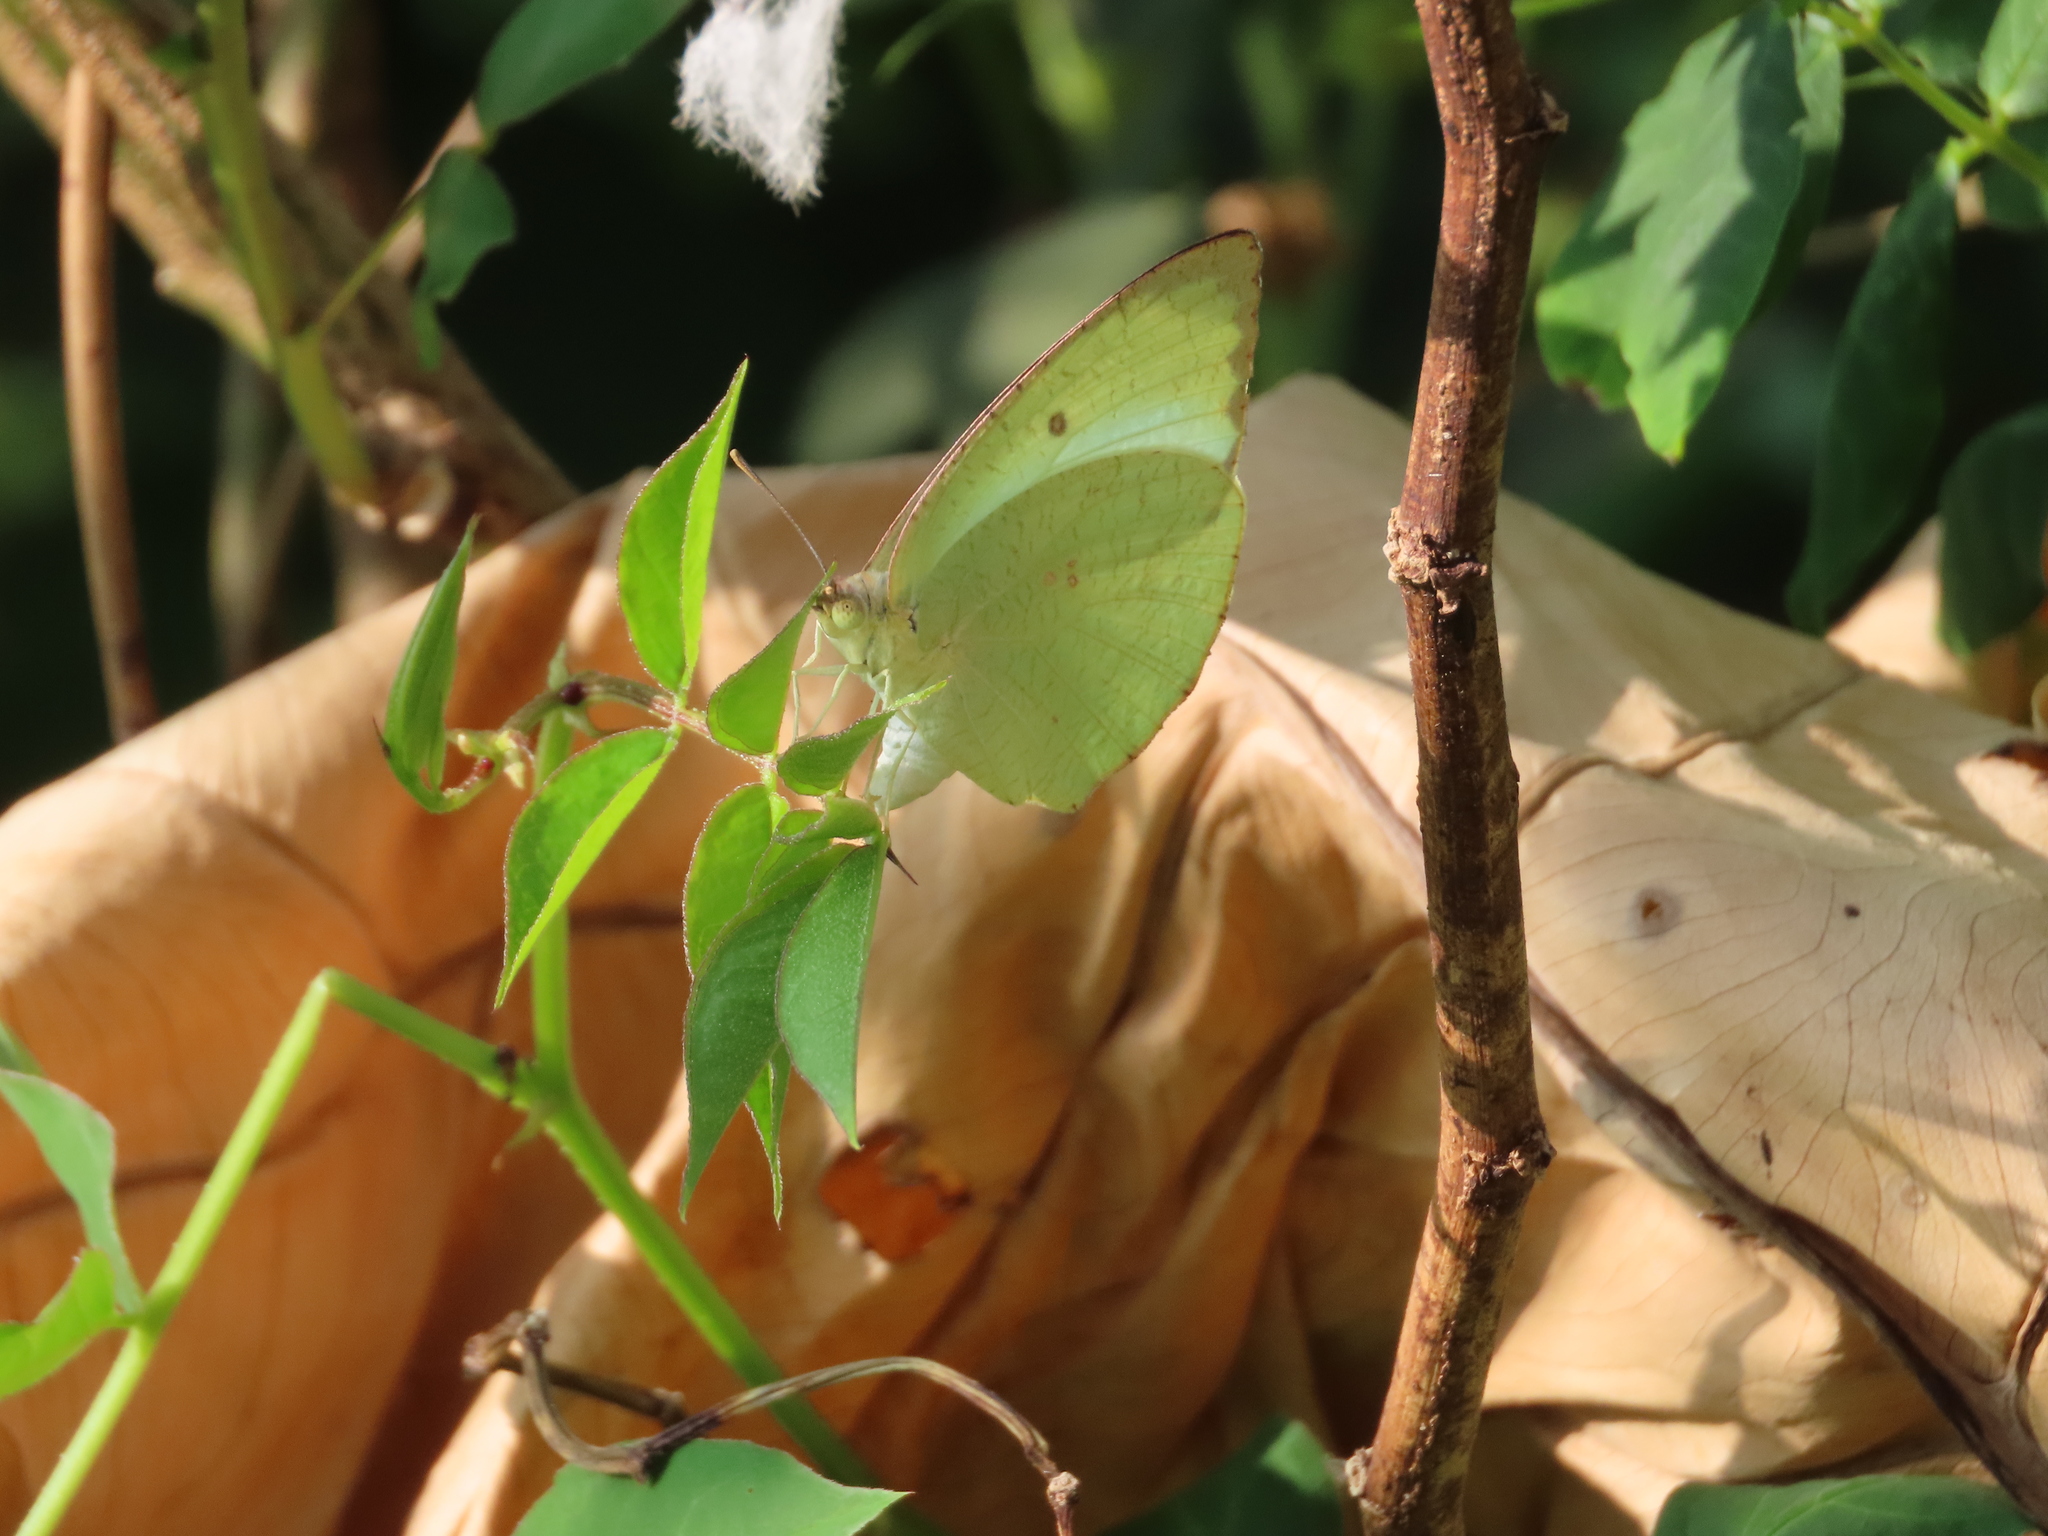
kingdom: Animalia
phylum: Arthropoda
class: Insecta
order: Lepidoptera
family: Pieridae
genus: Catopsilia
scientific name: Catopsilia pyranthe
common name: Mottled emigrant
